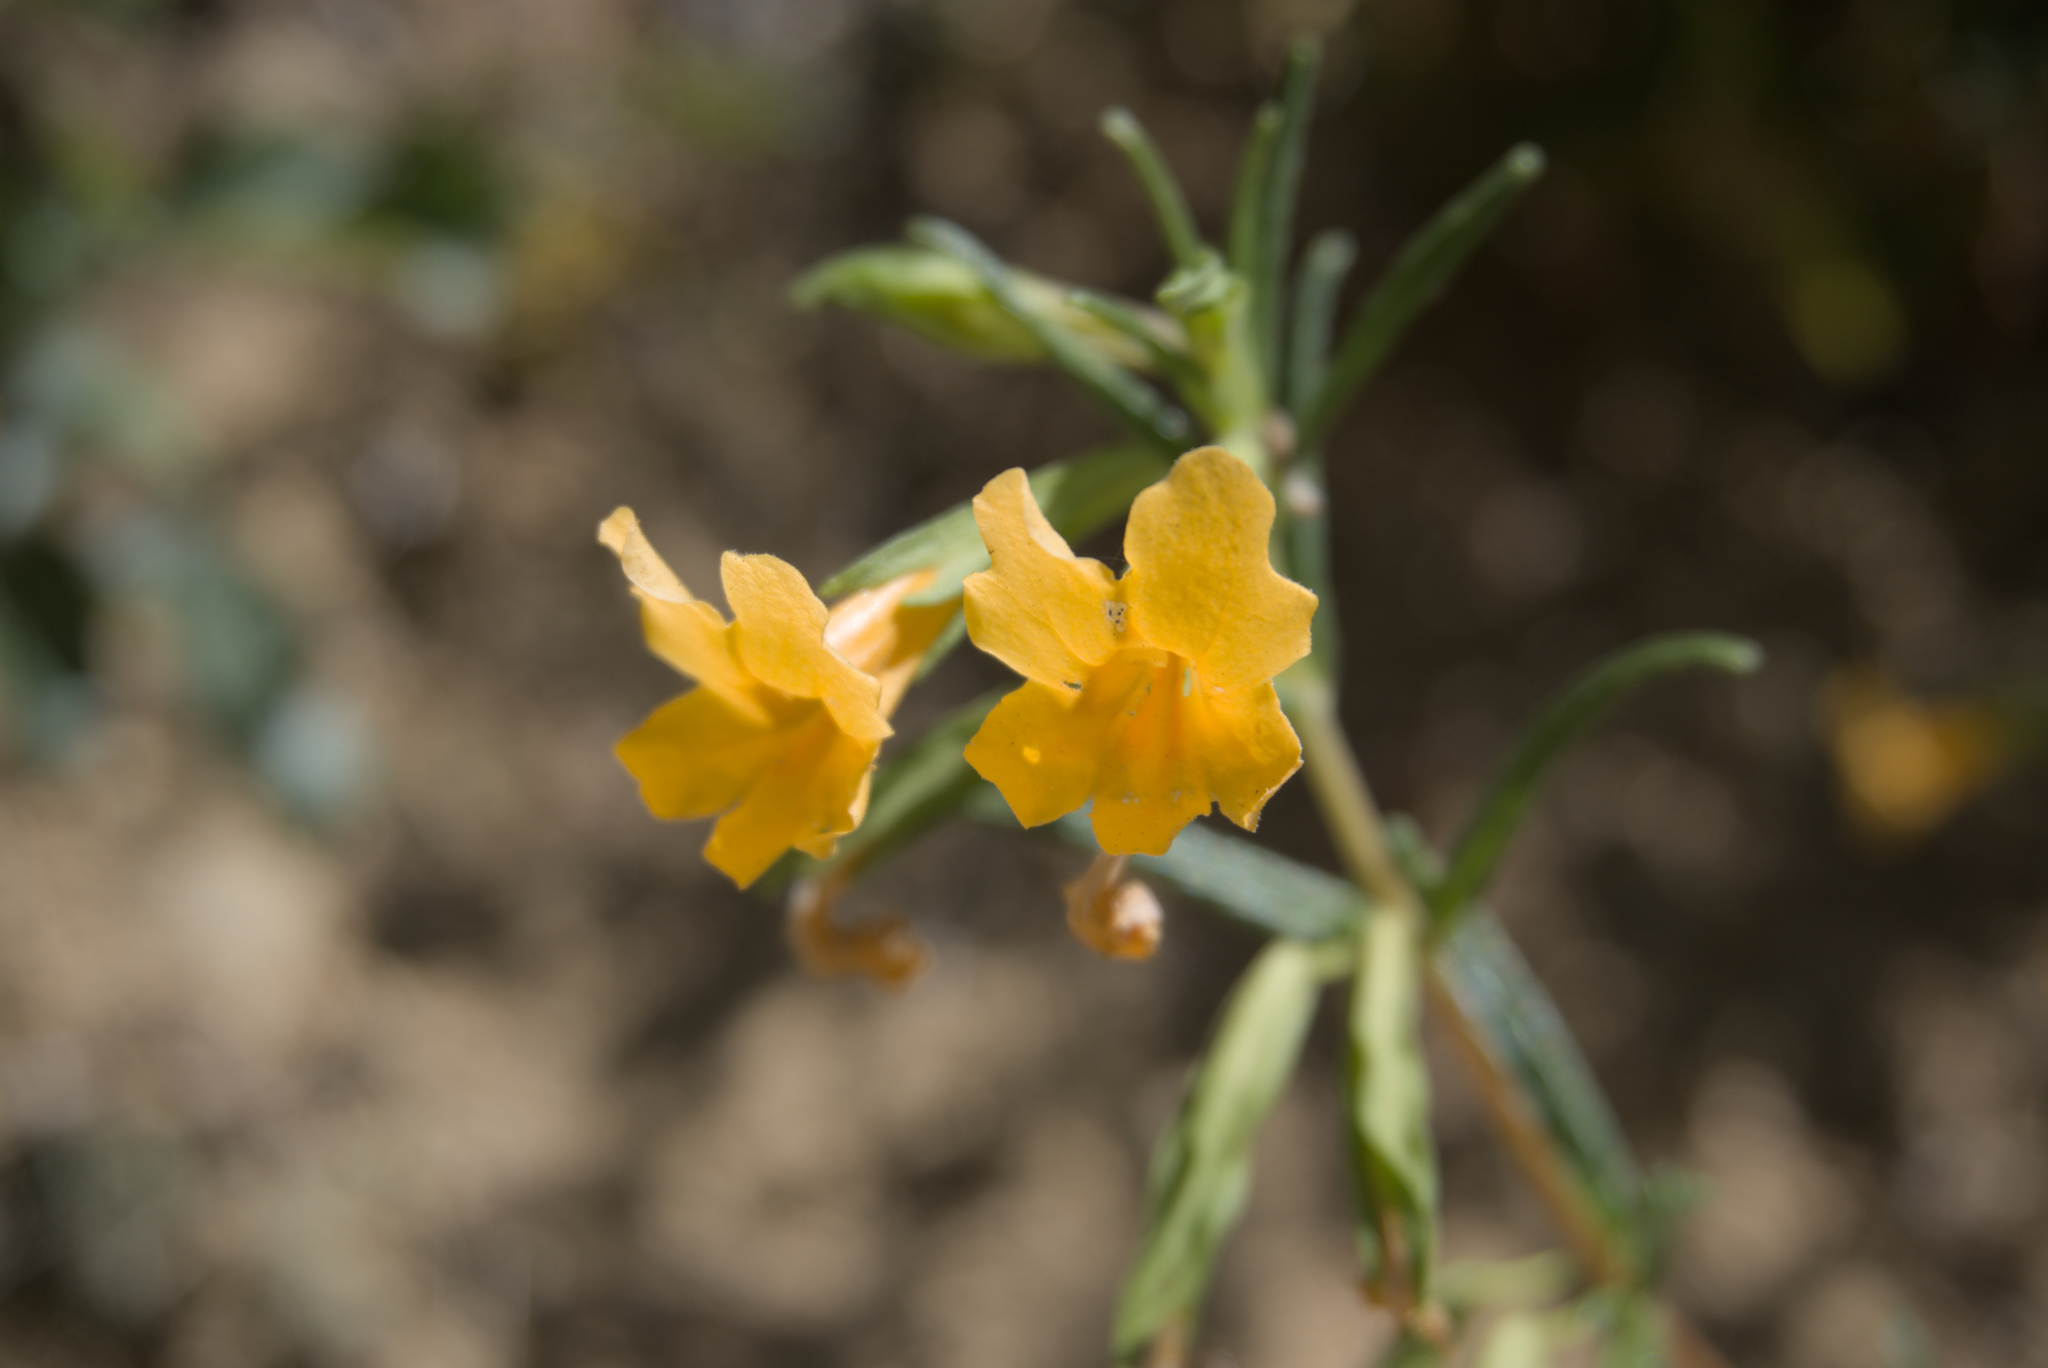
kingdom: Plantae
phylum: Tracheophyta
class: Magnoliopsida
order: Lamiales
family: Phrymaceae
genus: Diplacus
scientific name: Diplacus aurantiacus
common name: Bush monkey-flower
